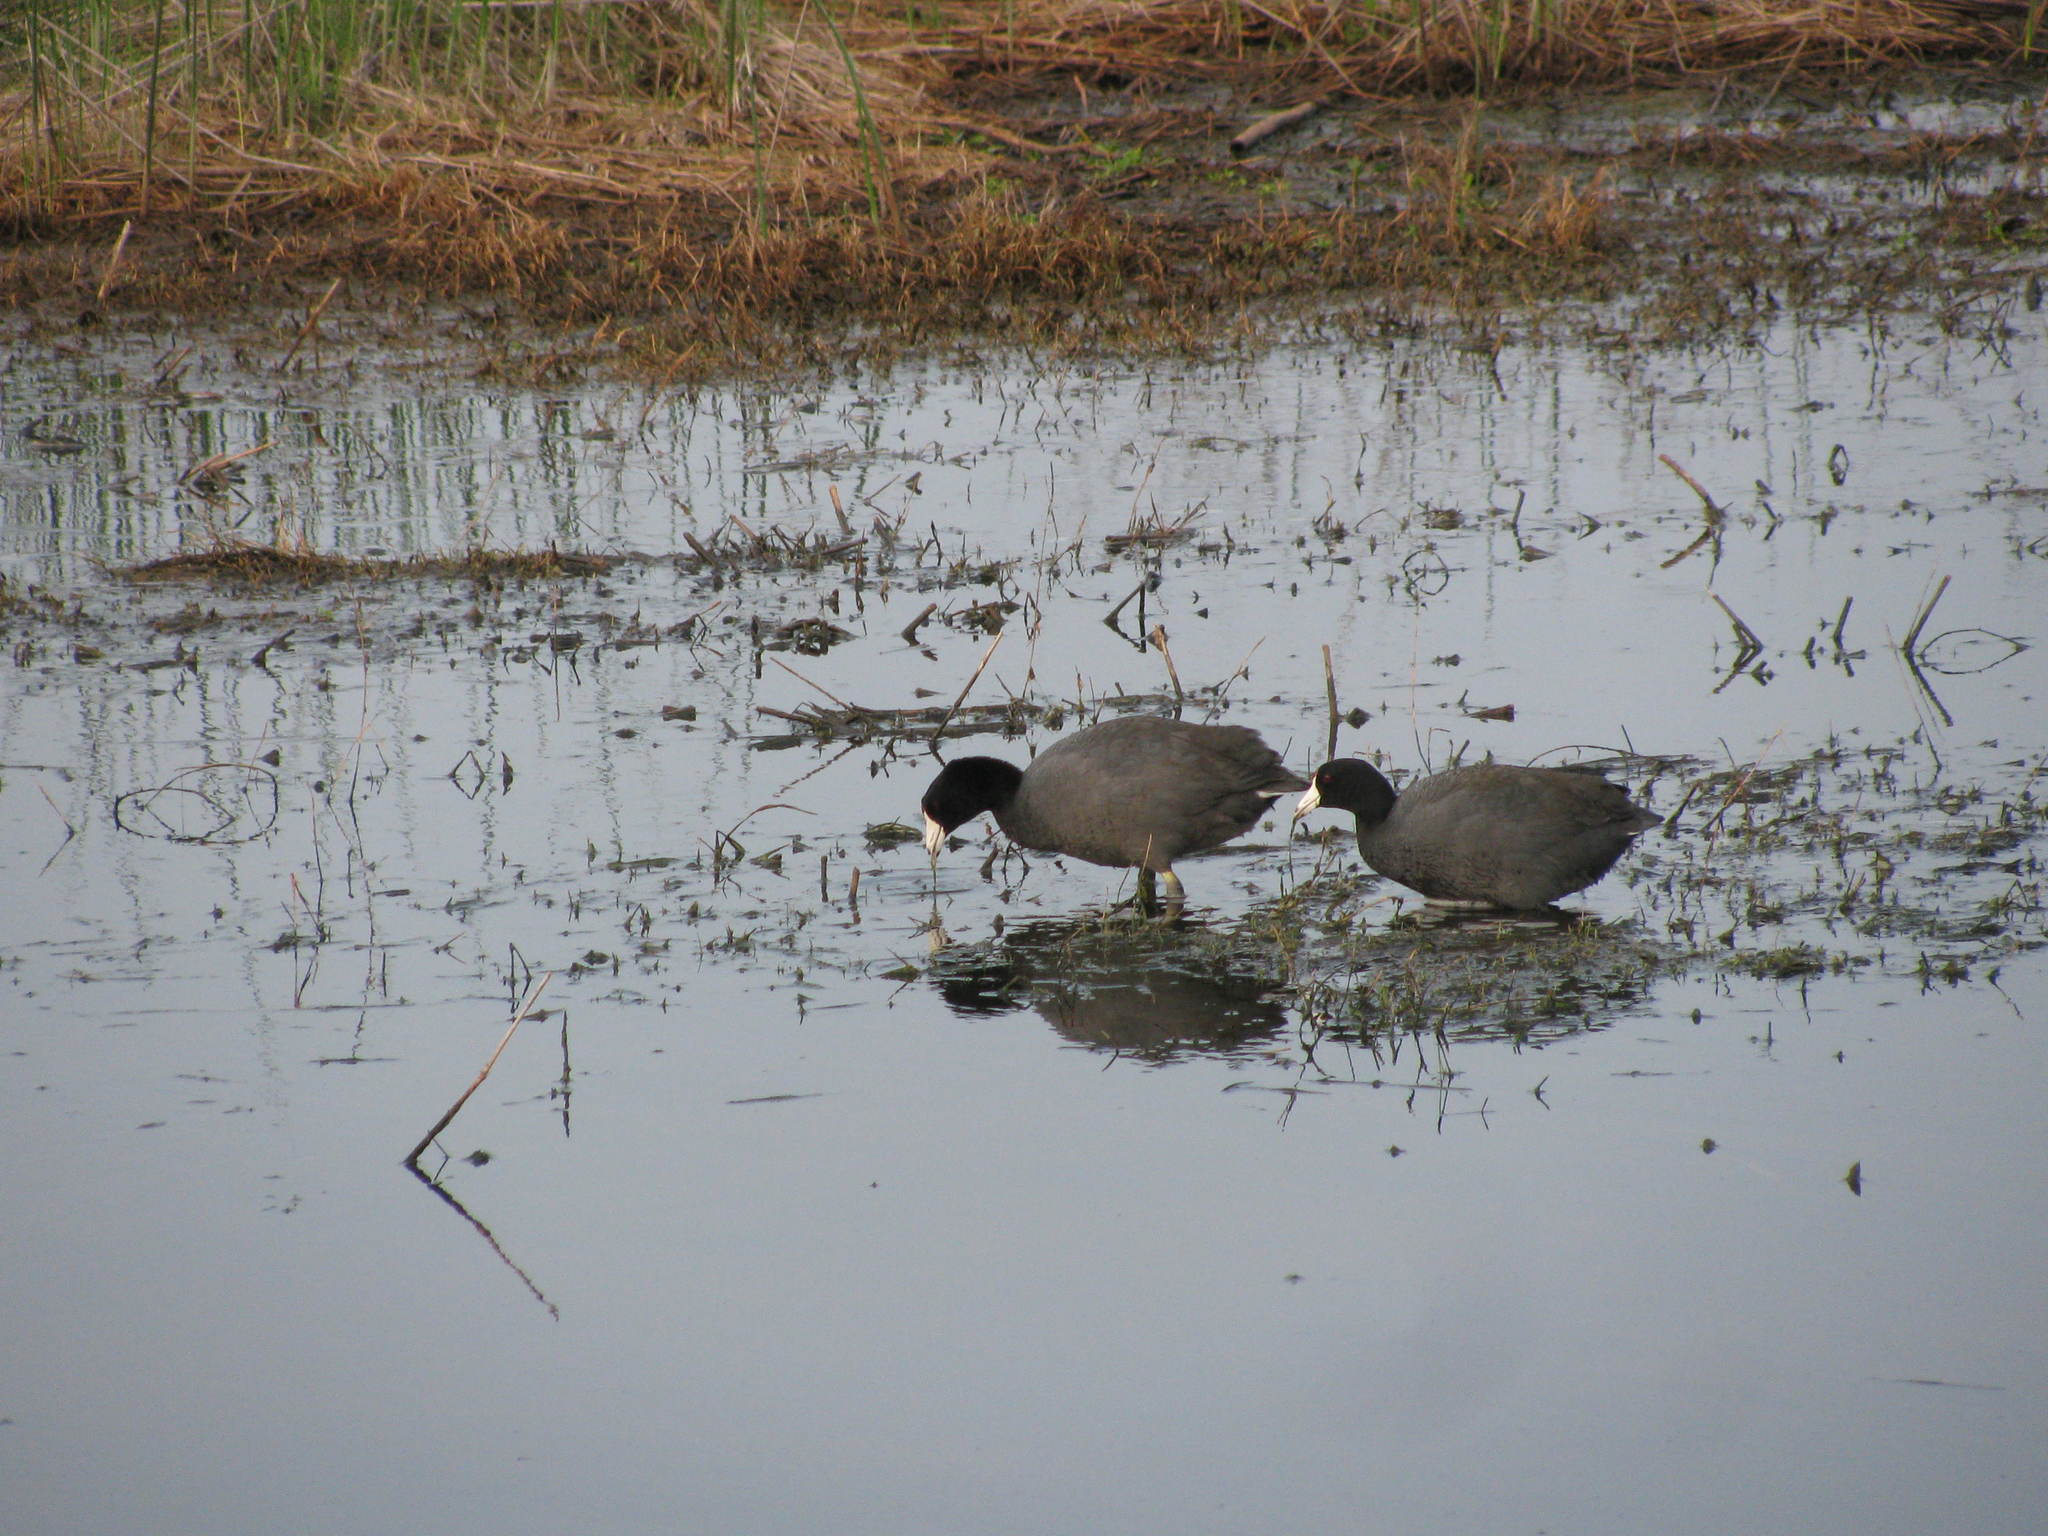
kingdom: Animalia
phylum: Chordata
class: Aves
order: Gruiformes
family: Rallidae
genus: Fulica
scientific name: Fulica americana
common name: American coot
